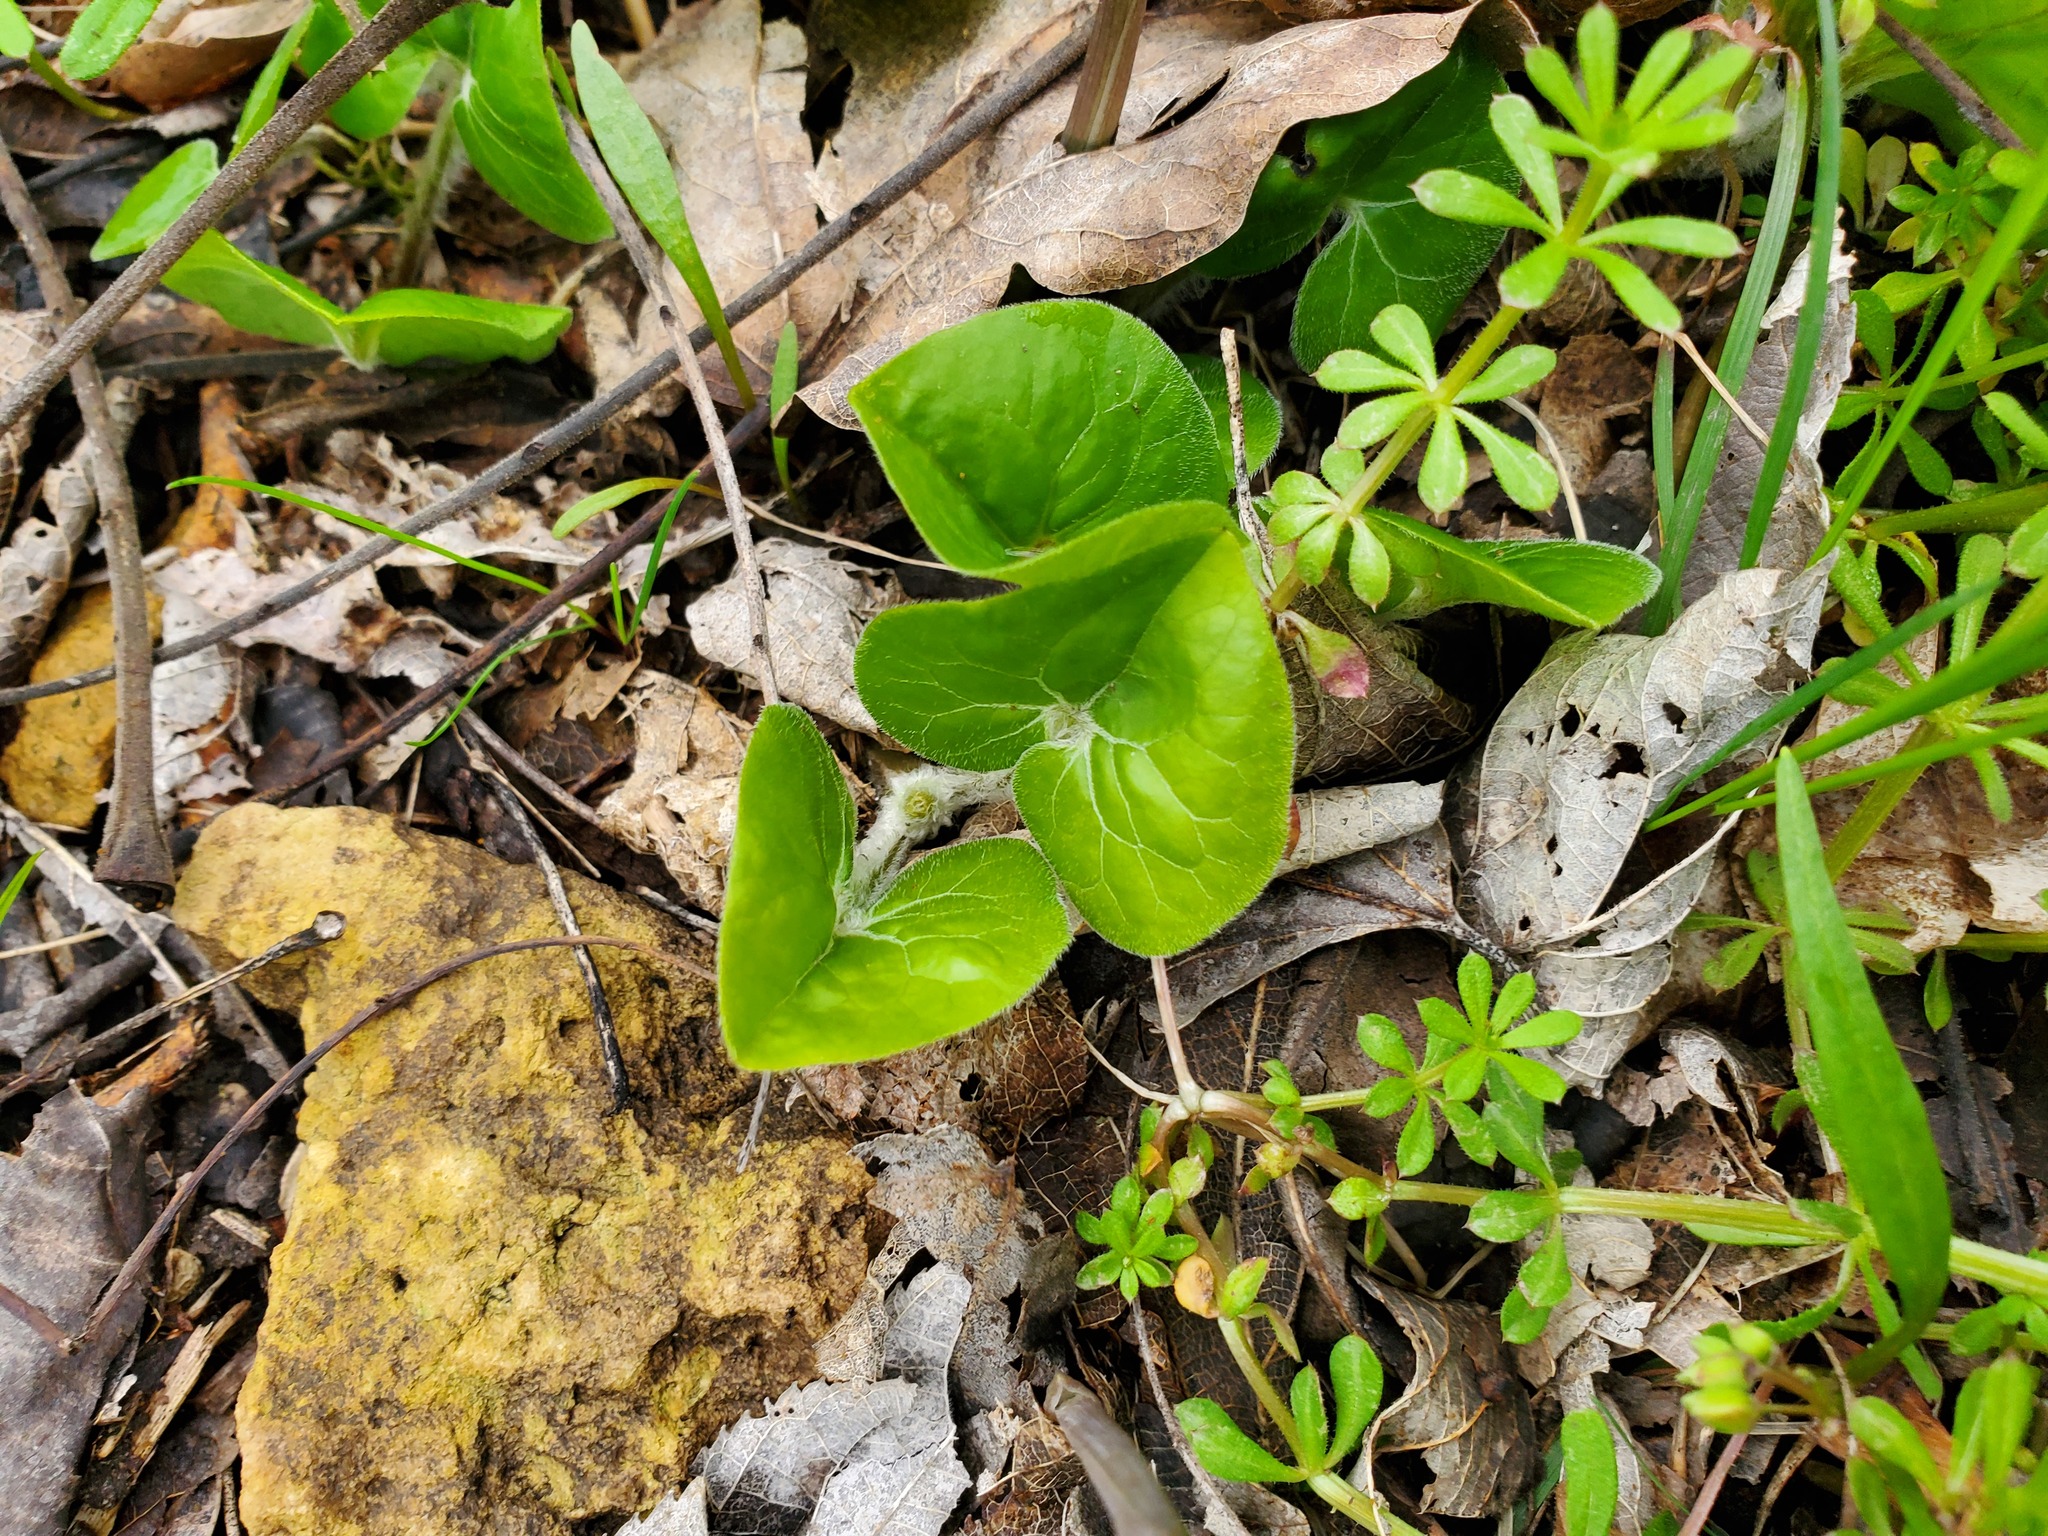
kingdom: Plantae
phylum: Tracheophyta
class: Magnoliopsida
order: Piperales
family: Aristolochiaceae
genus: Asarum
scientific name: Asarum canadense
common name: Wild ginger
